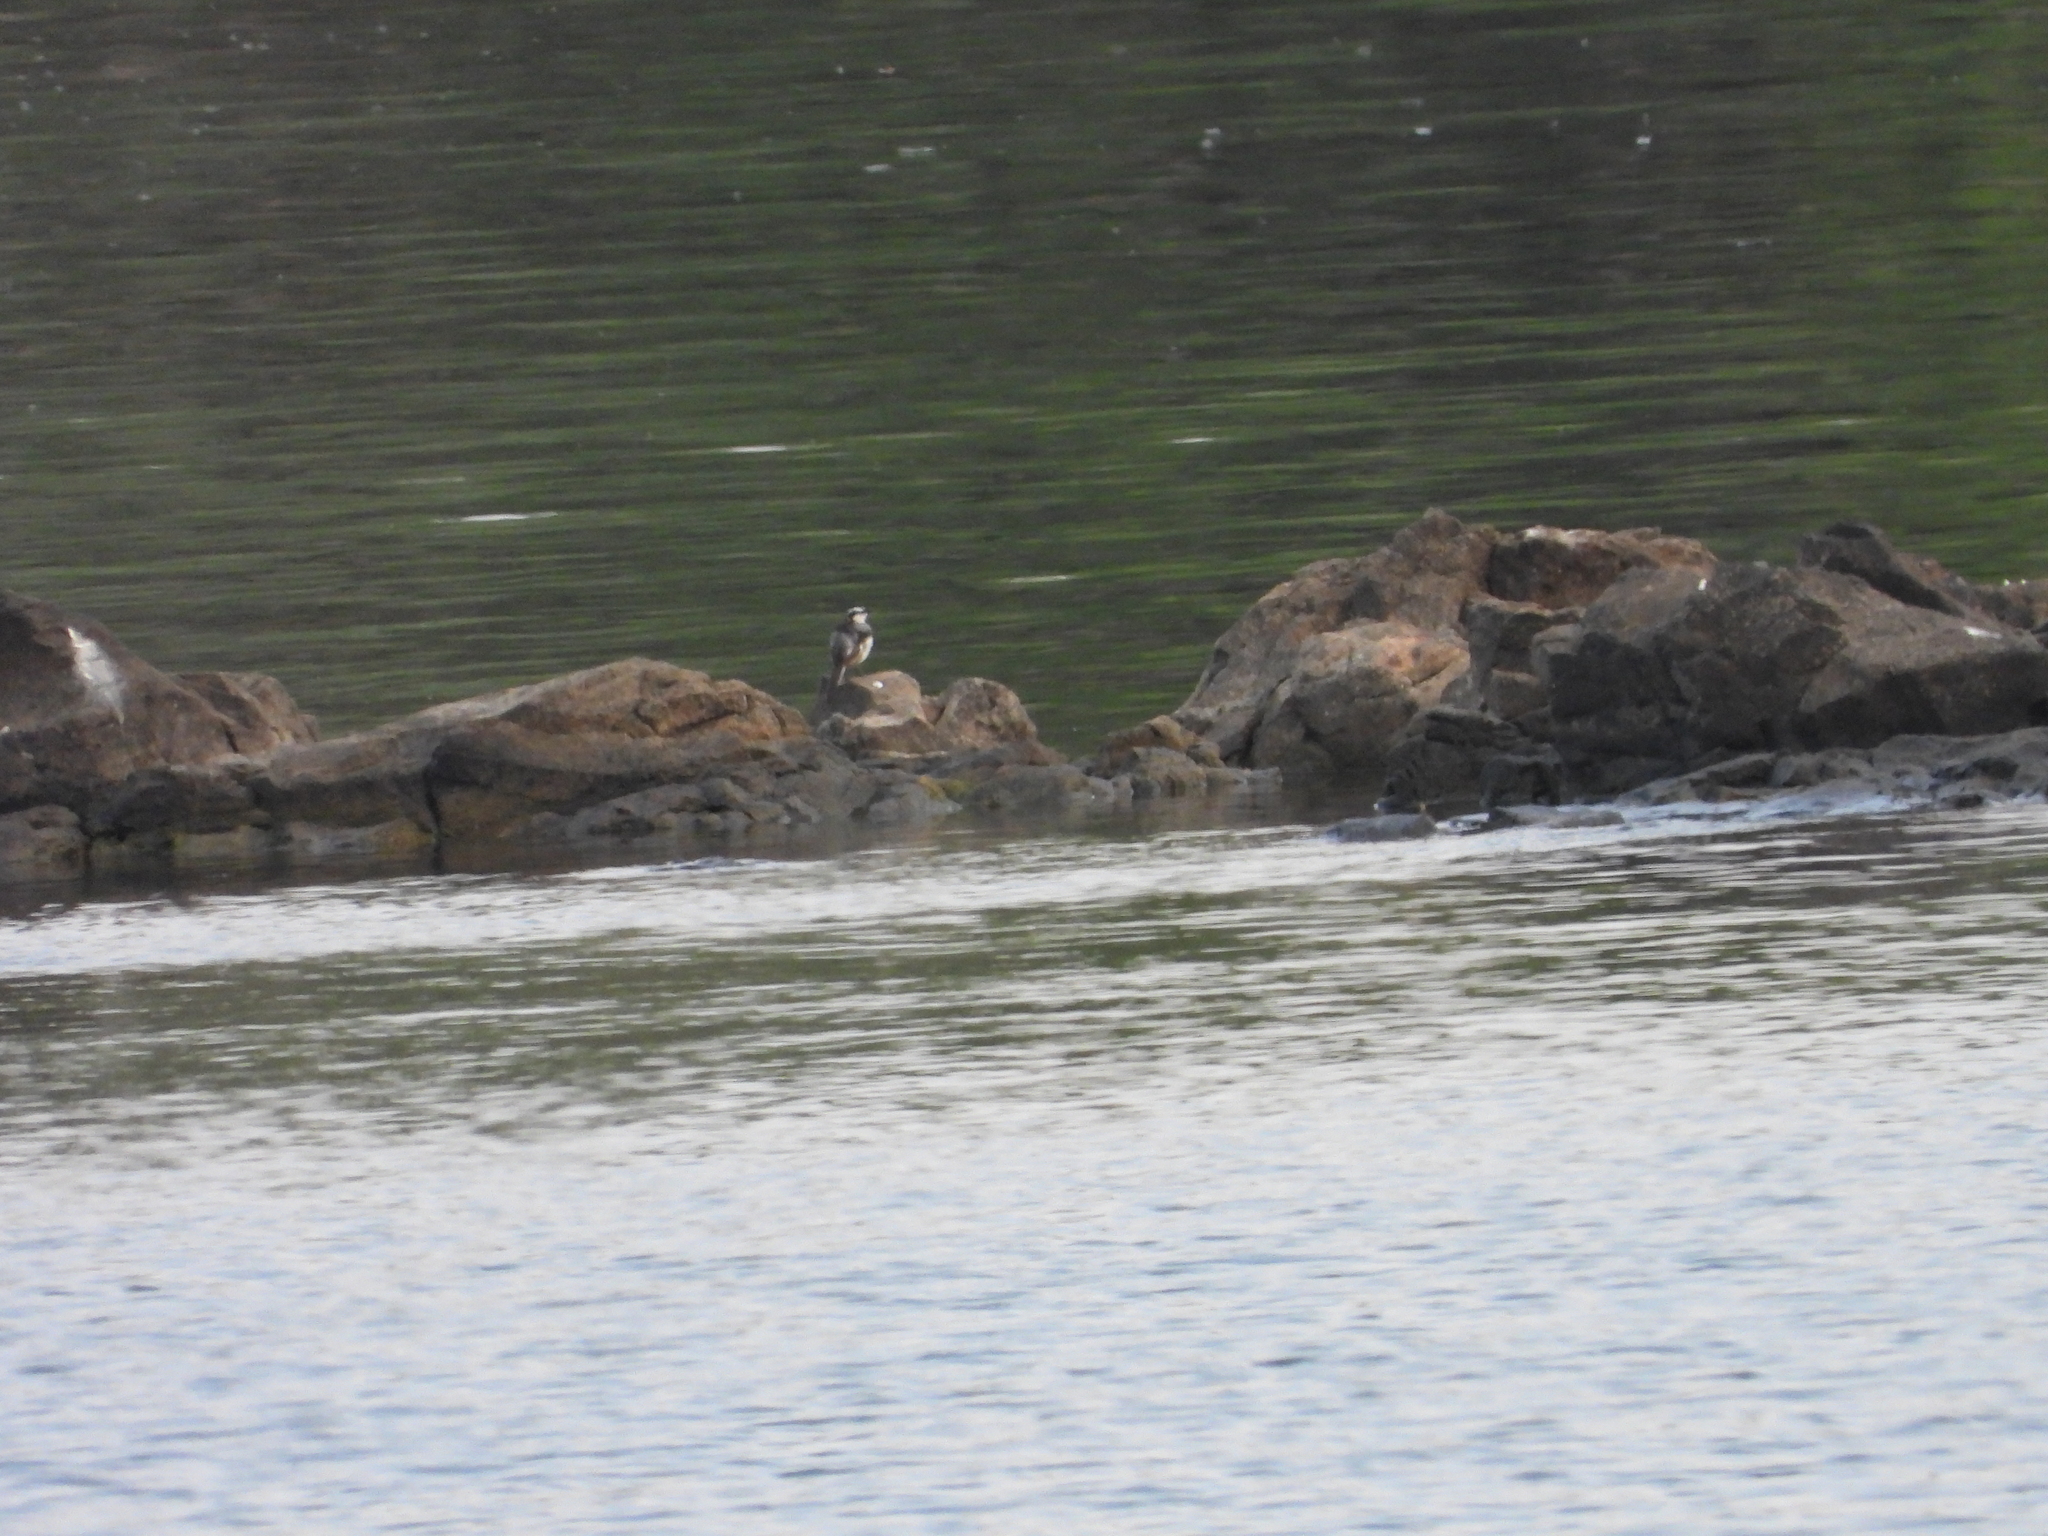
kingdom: Animalia
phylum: Chordata
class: Aves
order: Passeriformes
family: Motacillidae
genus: Motacilla
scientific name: Motacilla aguimp
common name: African pied wagtail
